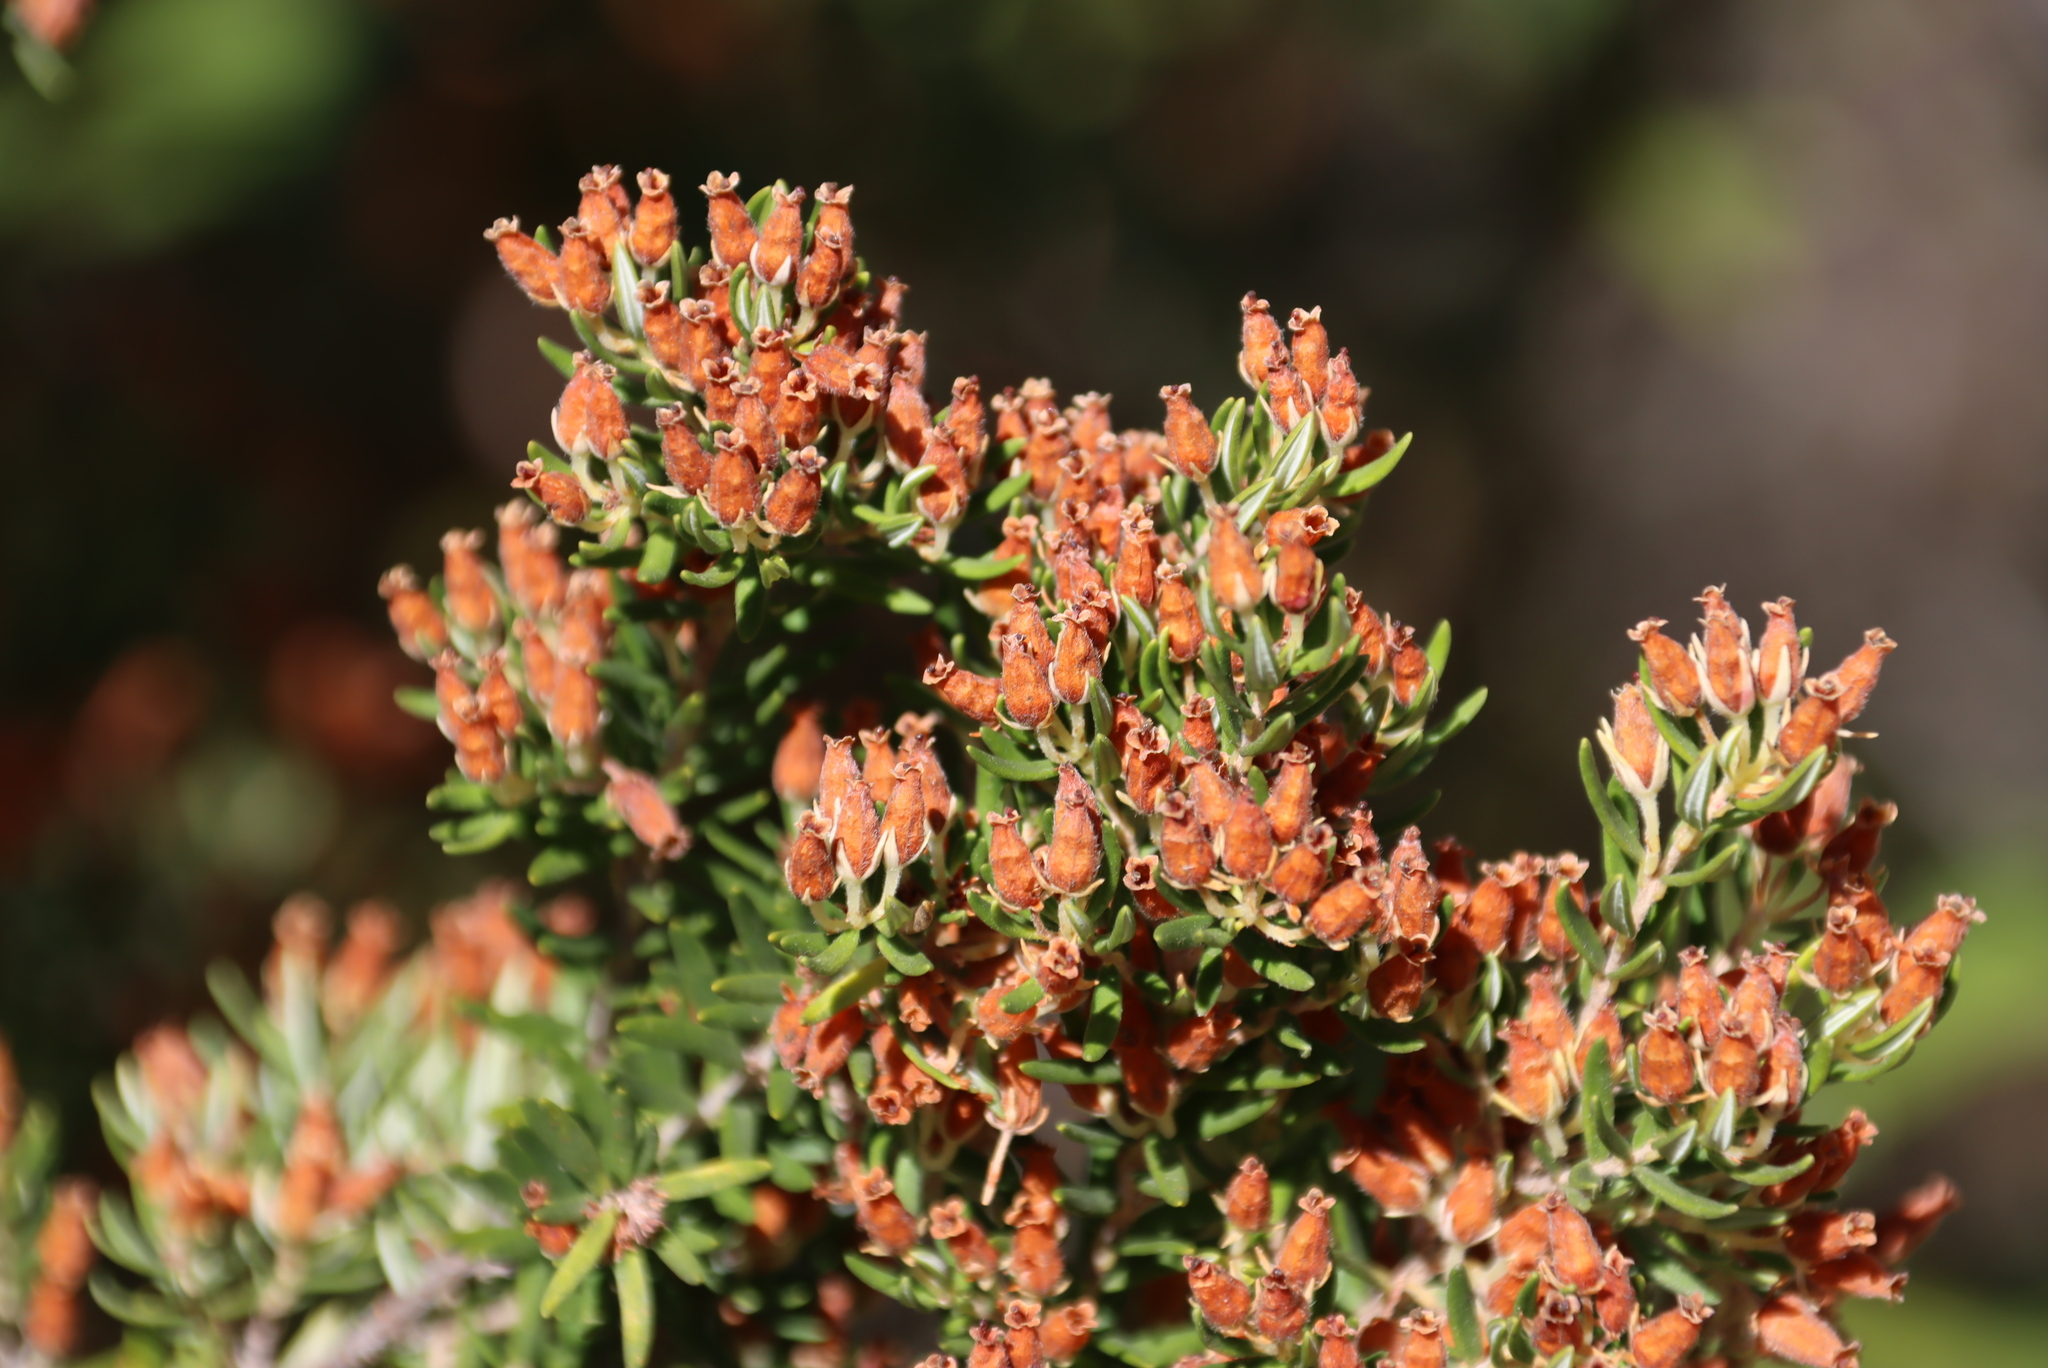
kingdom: Plantae
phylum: Tracheophyta
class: Magnoliopsida
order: Ericales
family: Ericaceae
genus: Erica
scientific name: Erica caffra
